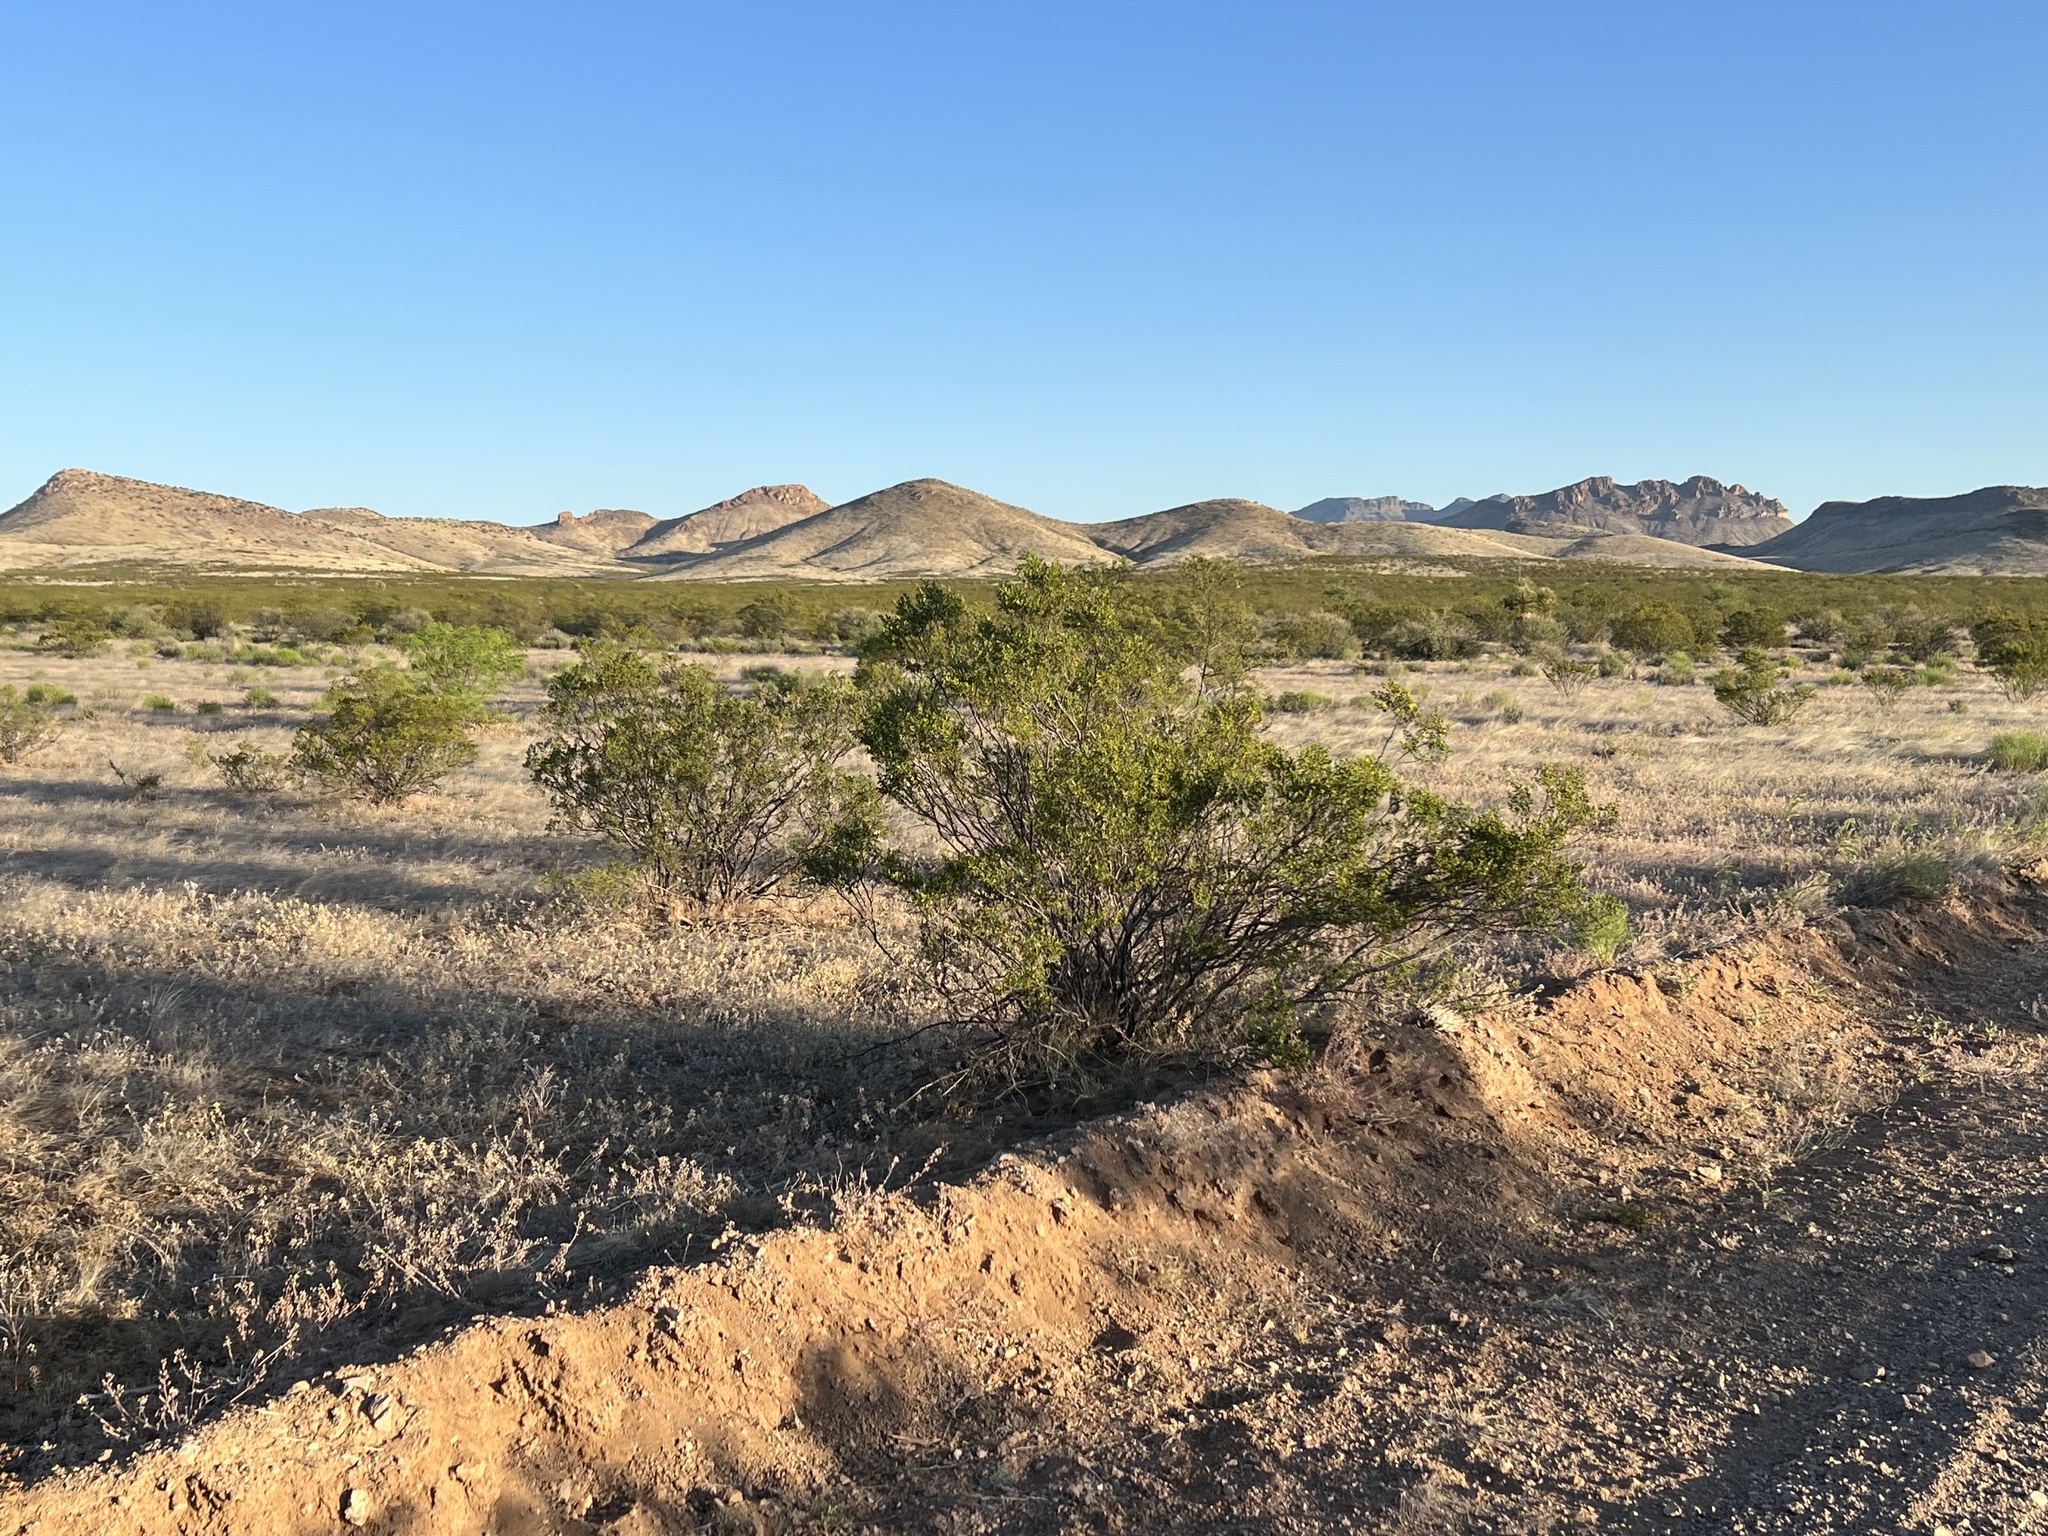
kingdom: Plantae
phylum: Tracheophyta
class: Magnoliopsida
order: Zygophyllales
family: Zygophyllaceae
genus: Larrea
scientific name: Larrea tridentata
